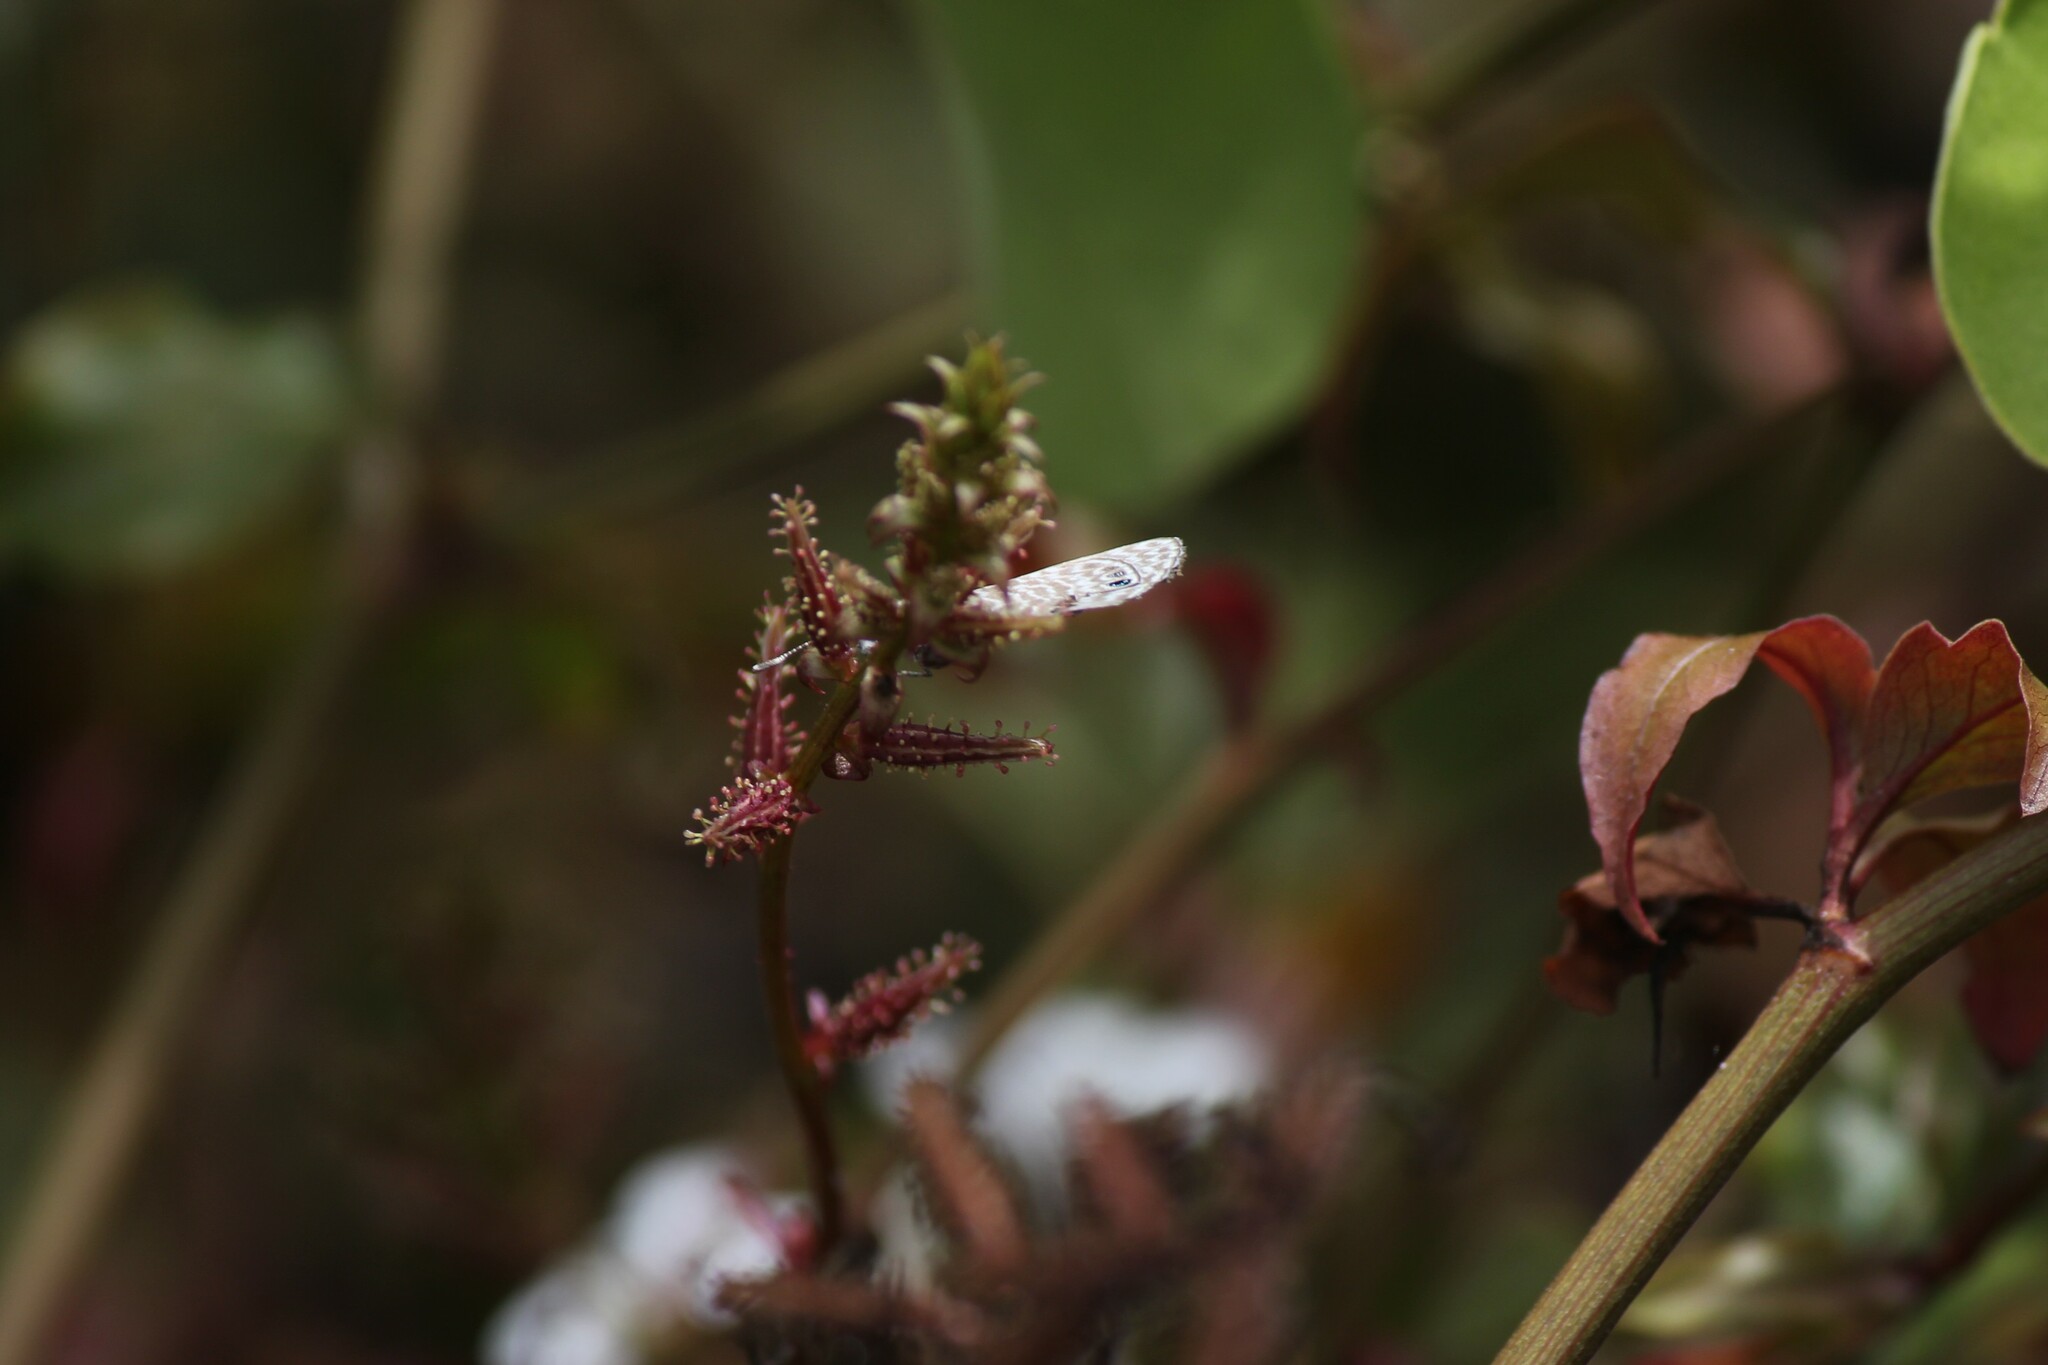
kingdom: Animalia
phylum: Arthropoda
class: Insecta
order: Lepidoptera
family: Lycaenidae
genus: Leptotes
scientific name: Leptotes
